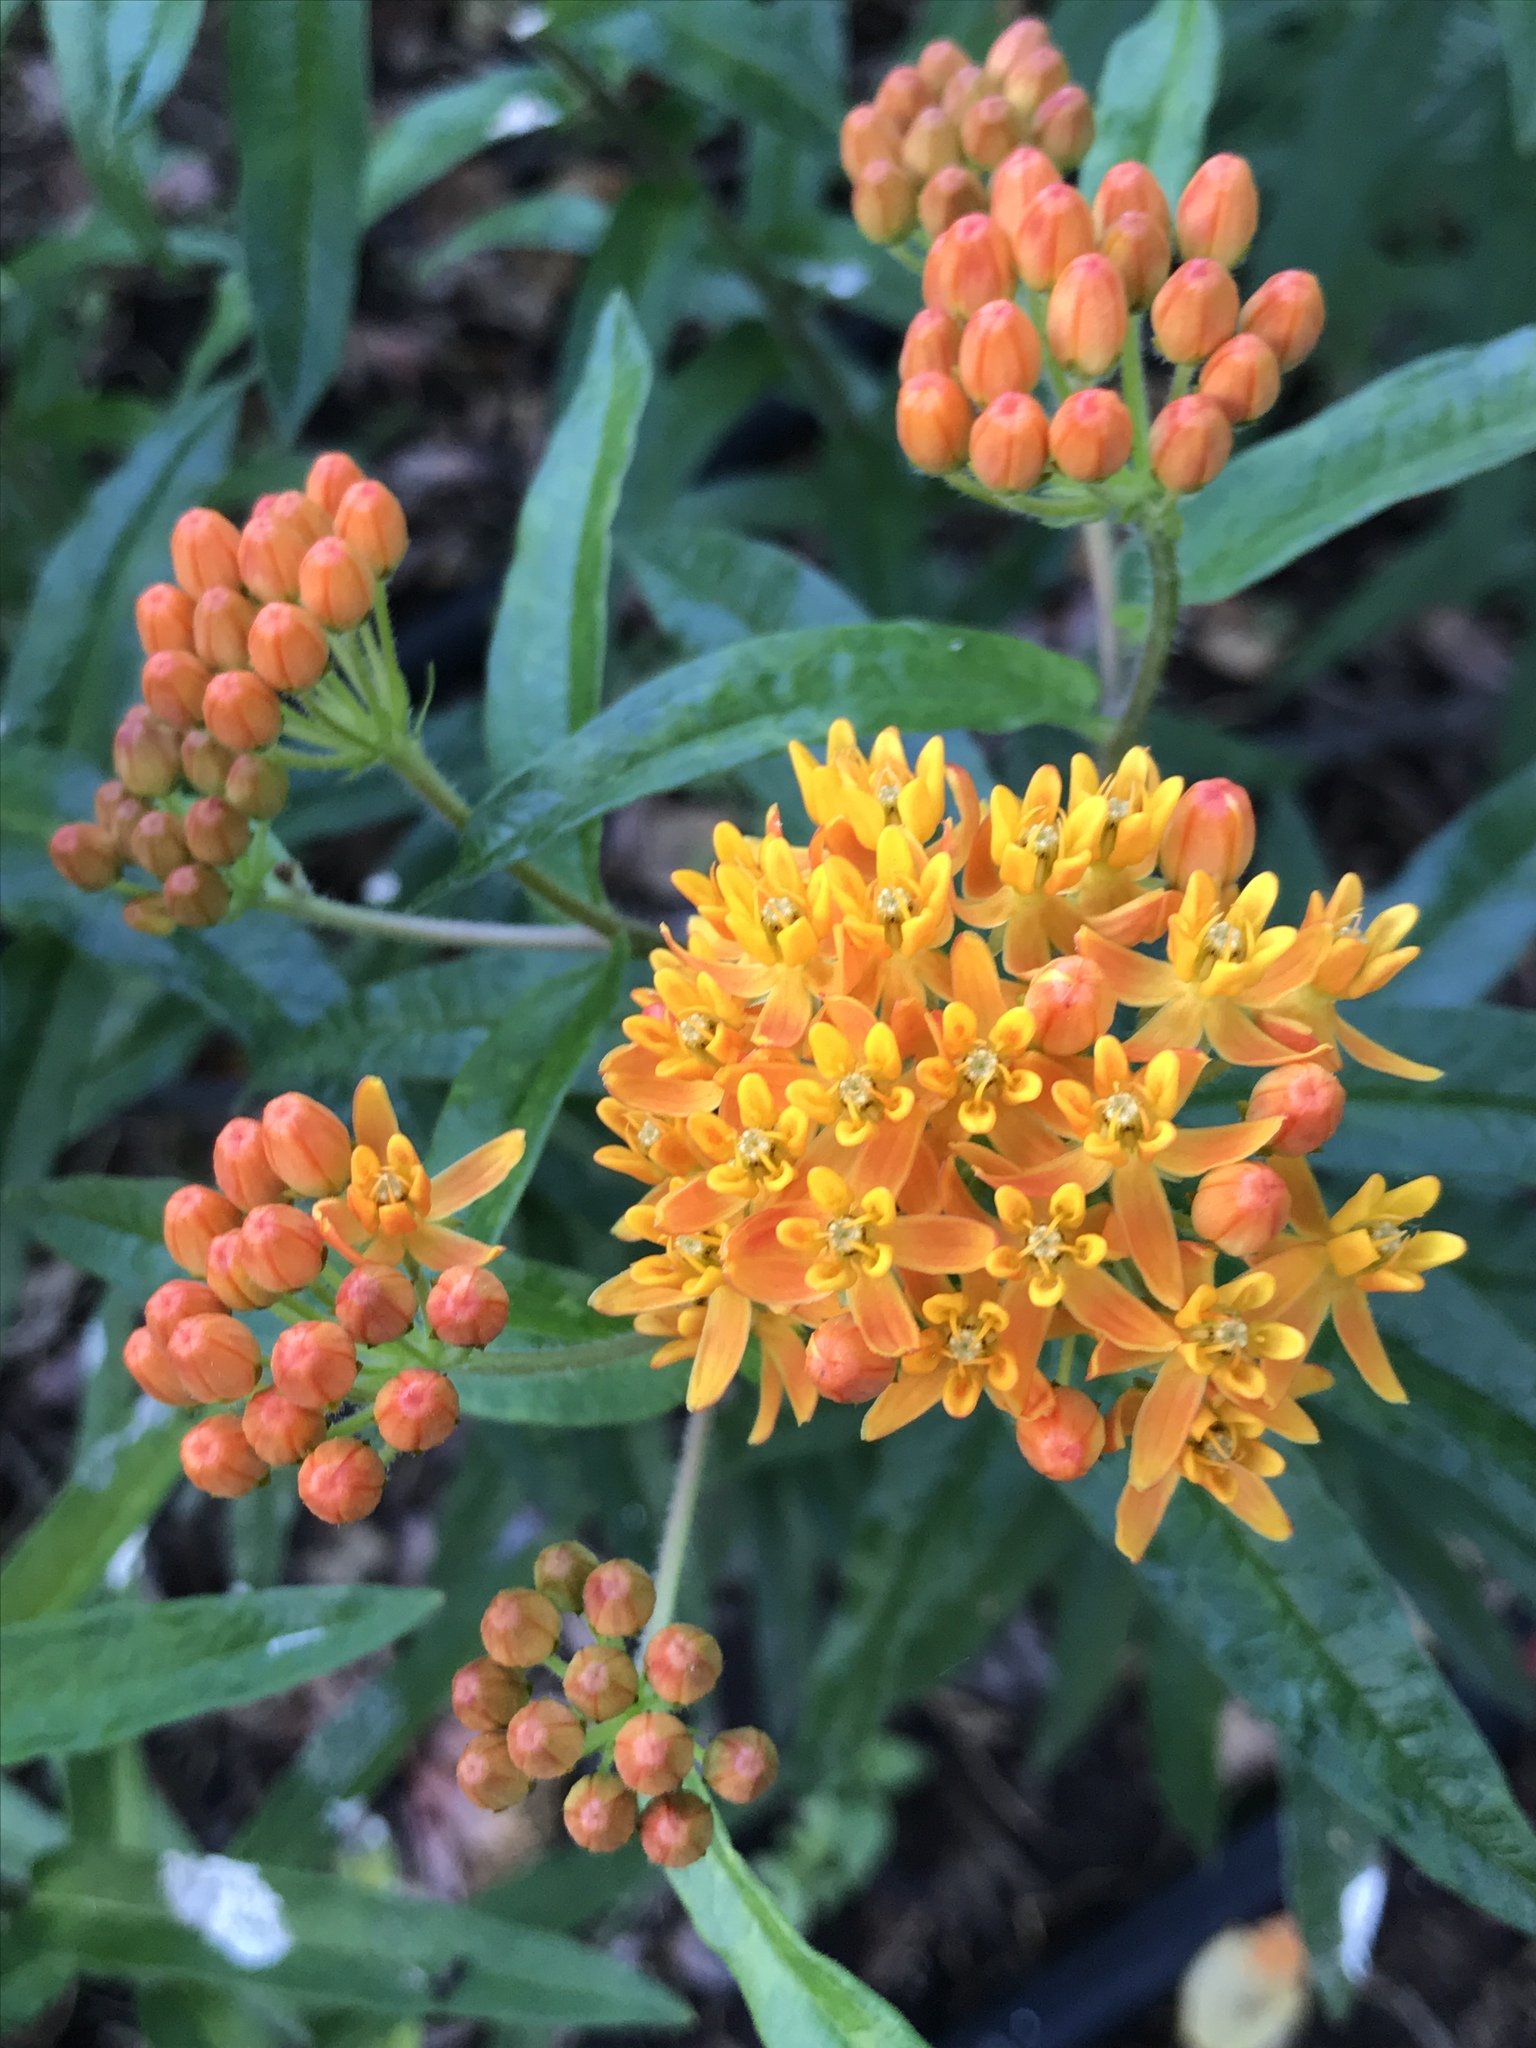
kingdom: Plantae
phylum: Tracheophyta
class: Magnoliopsida
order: Gentianales
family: Apocynaceae
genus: Asclepias
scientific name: Asclepias tuberosa
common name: Butterfly milkweed
